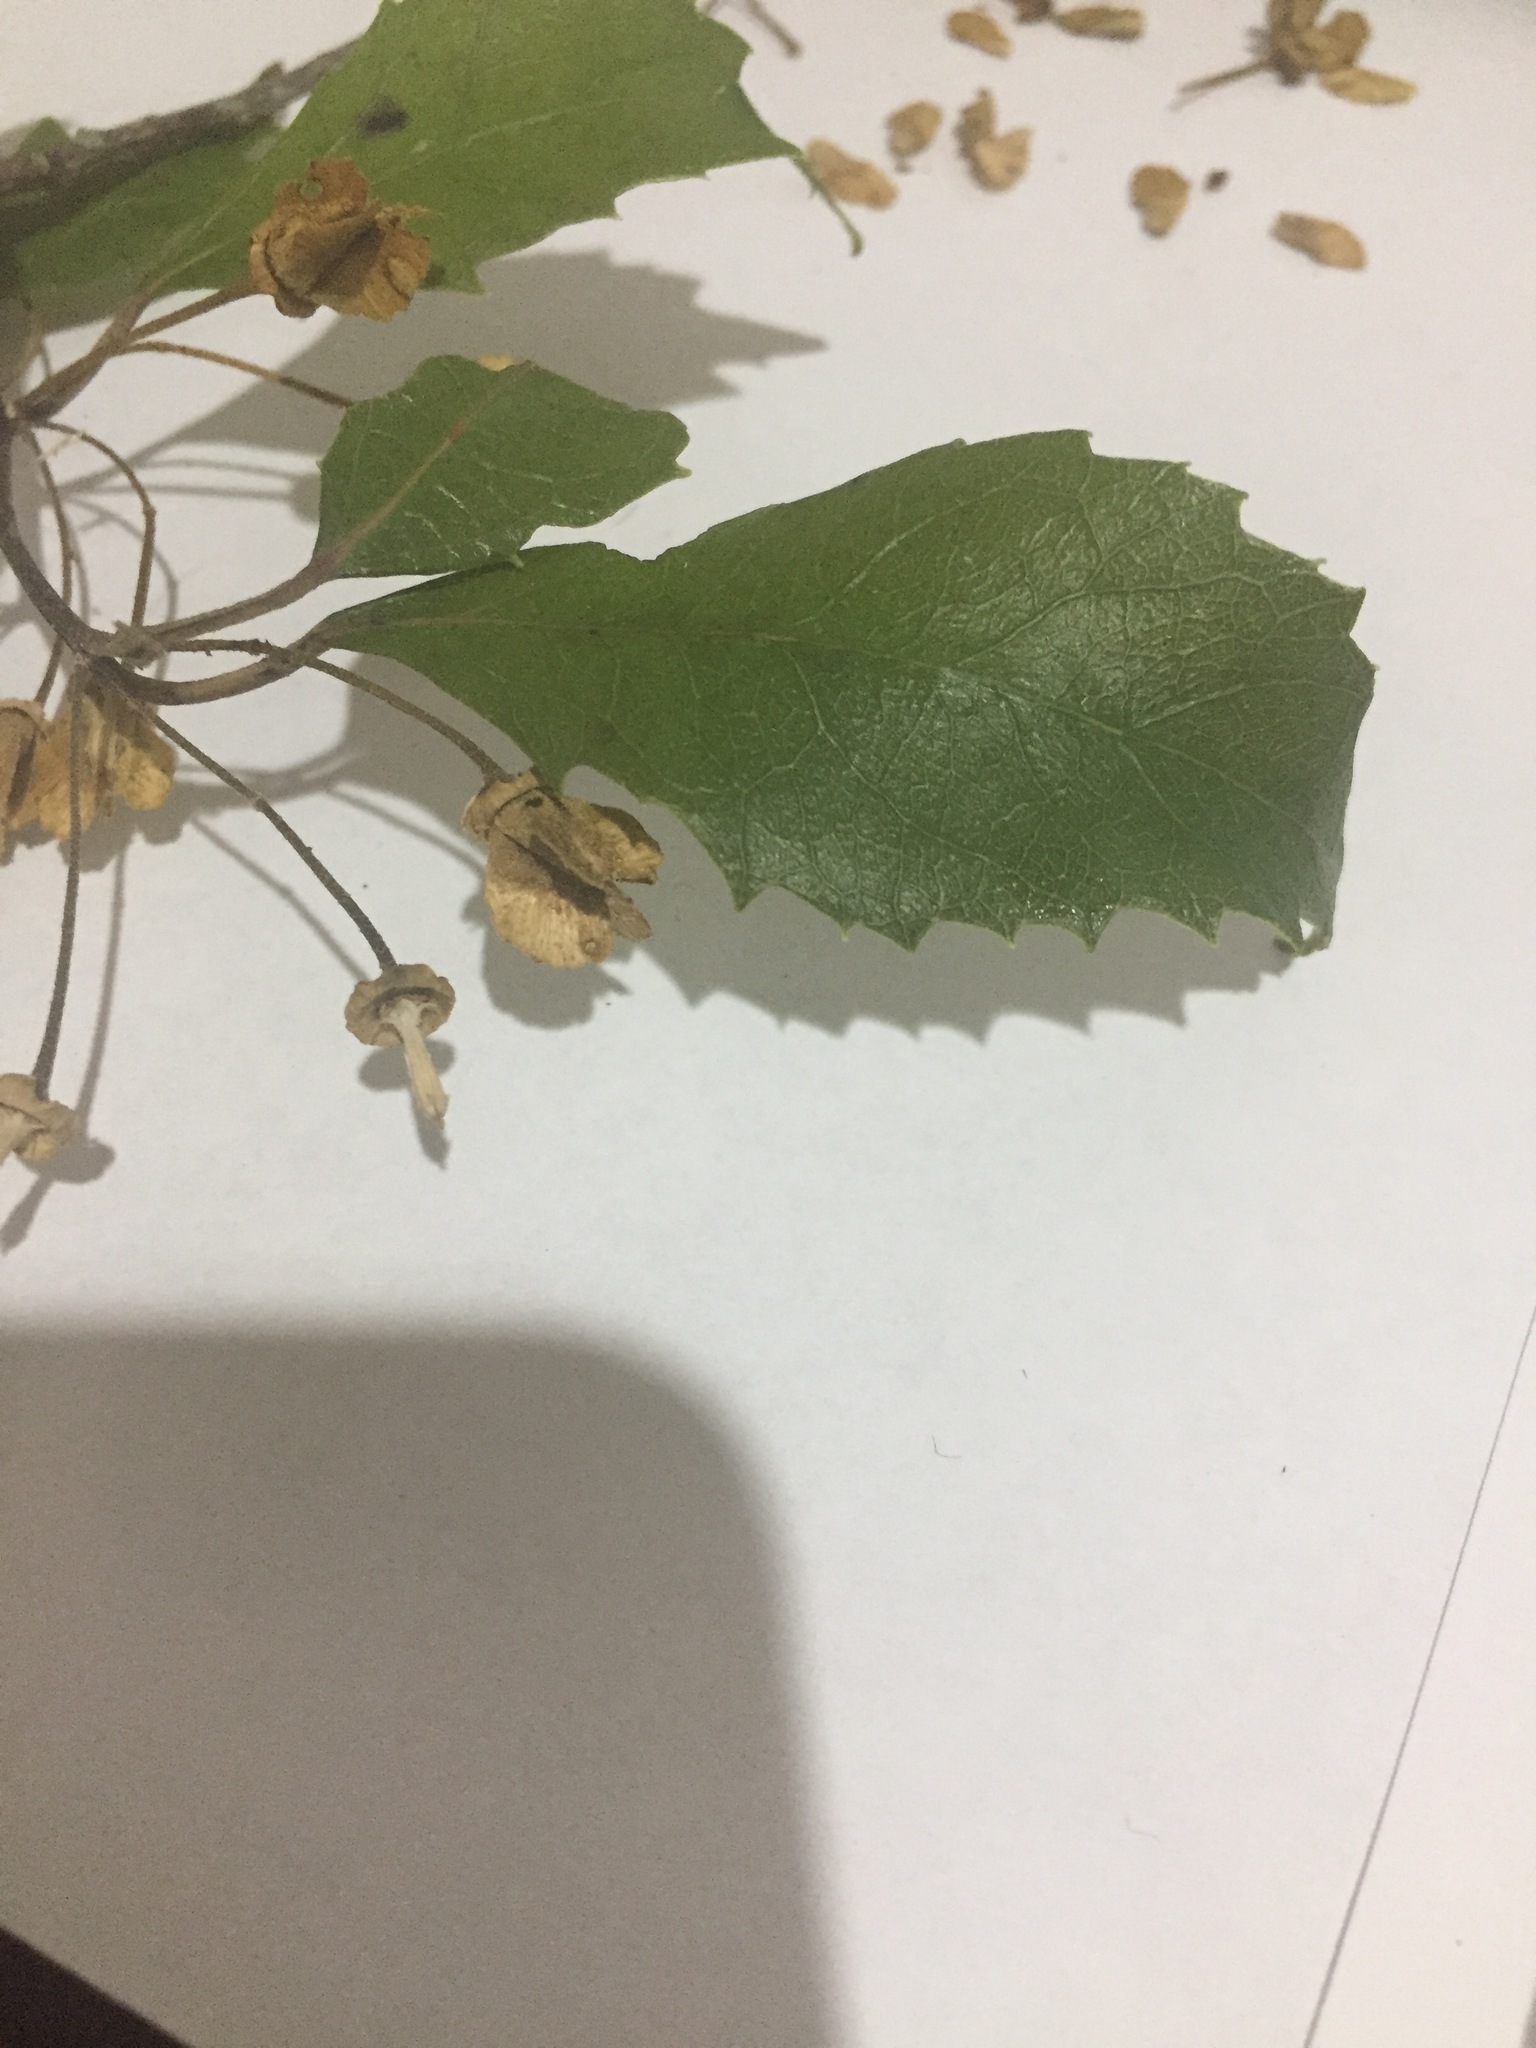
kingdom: Plantae
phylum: Tracheophyta
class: Magnoliopsida
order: Malvales
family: Malvaceae
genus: Hoheria
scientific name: Hoheria sexstylosa
